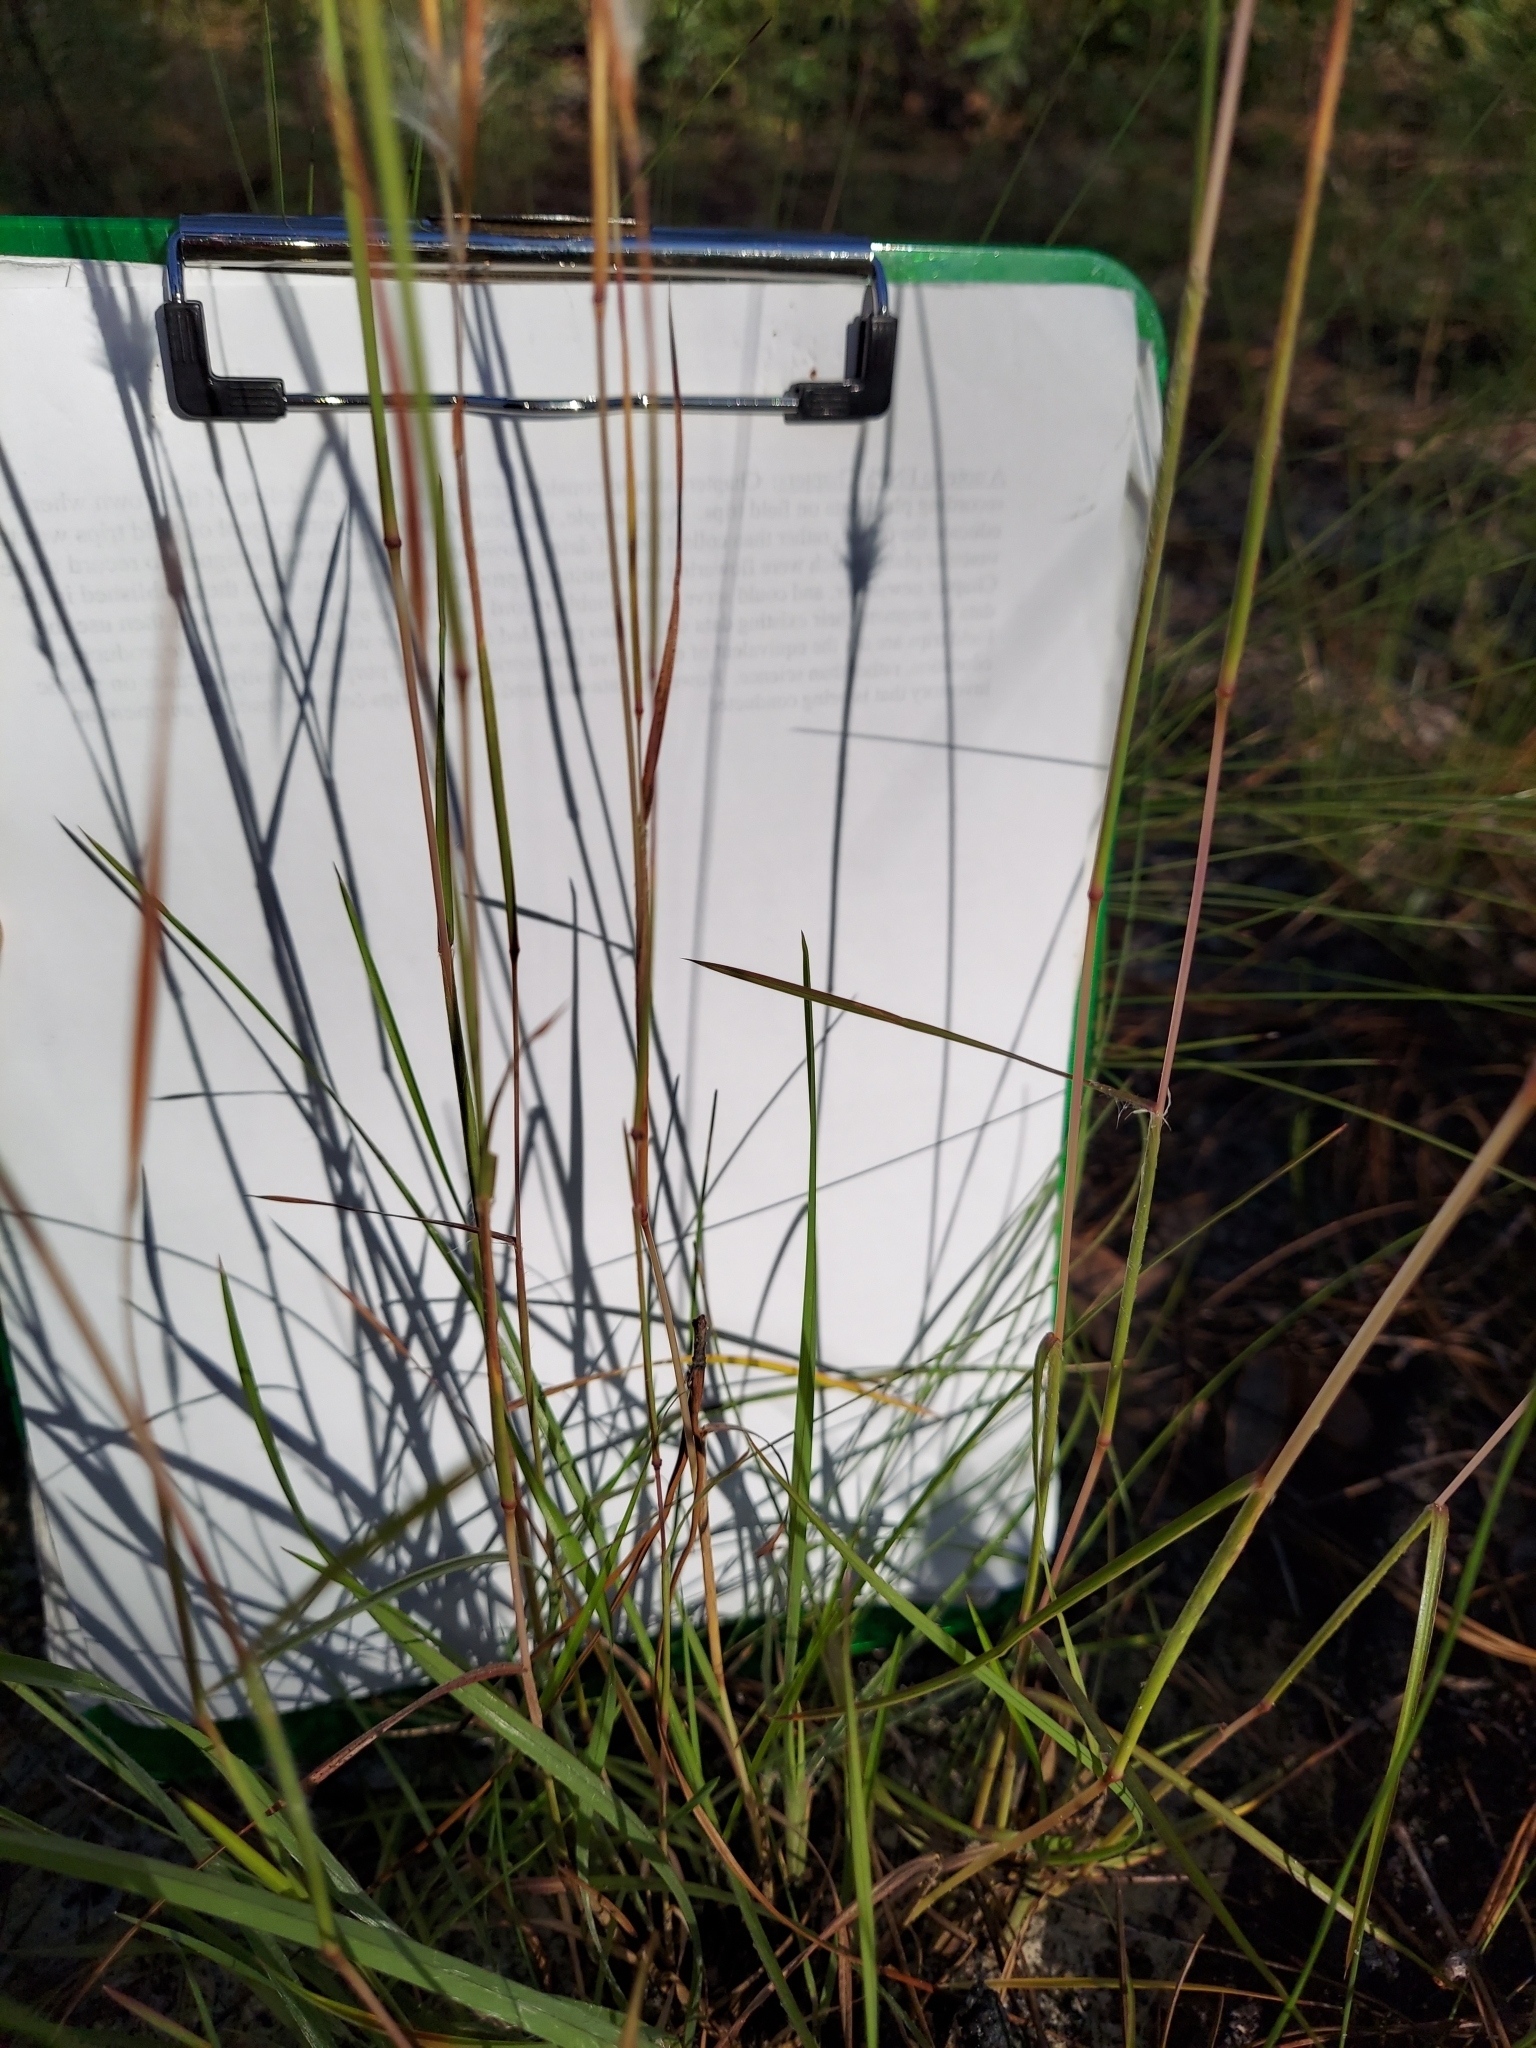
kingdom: Plantae
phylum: Tracheophyta
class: Liliopsida
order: Poales
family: Poaceae
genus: Andropogon
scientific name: Andropogon tracyi
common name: Tracy's bluestem
